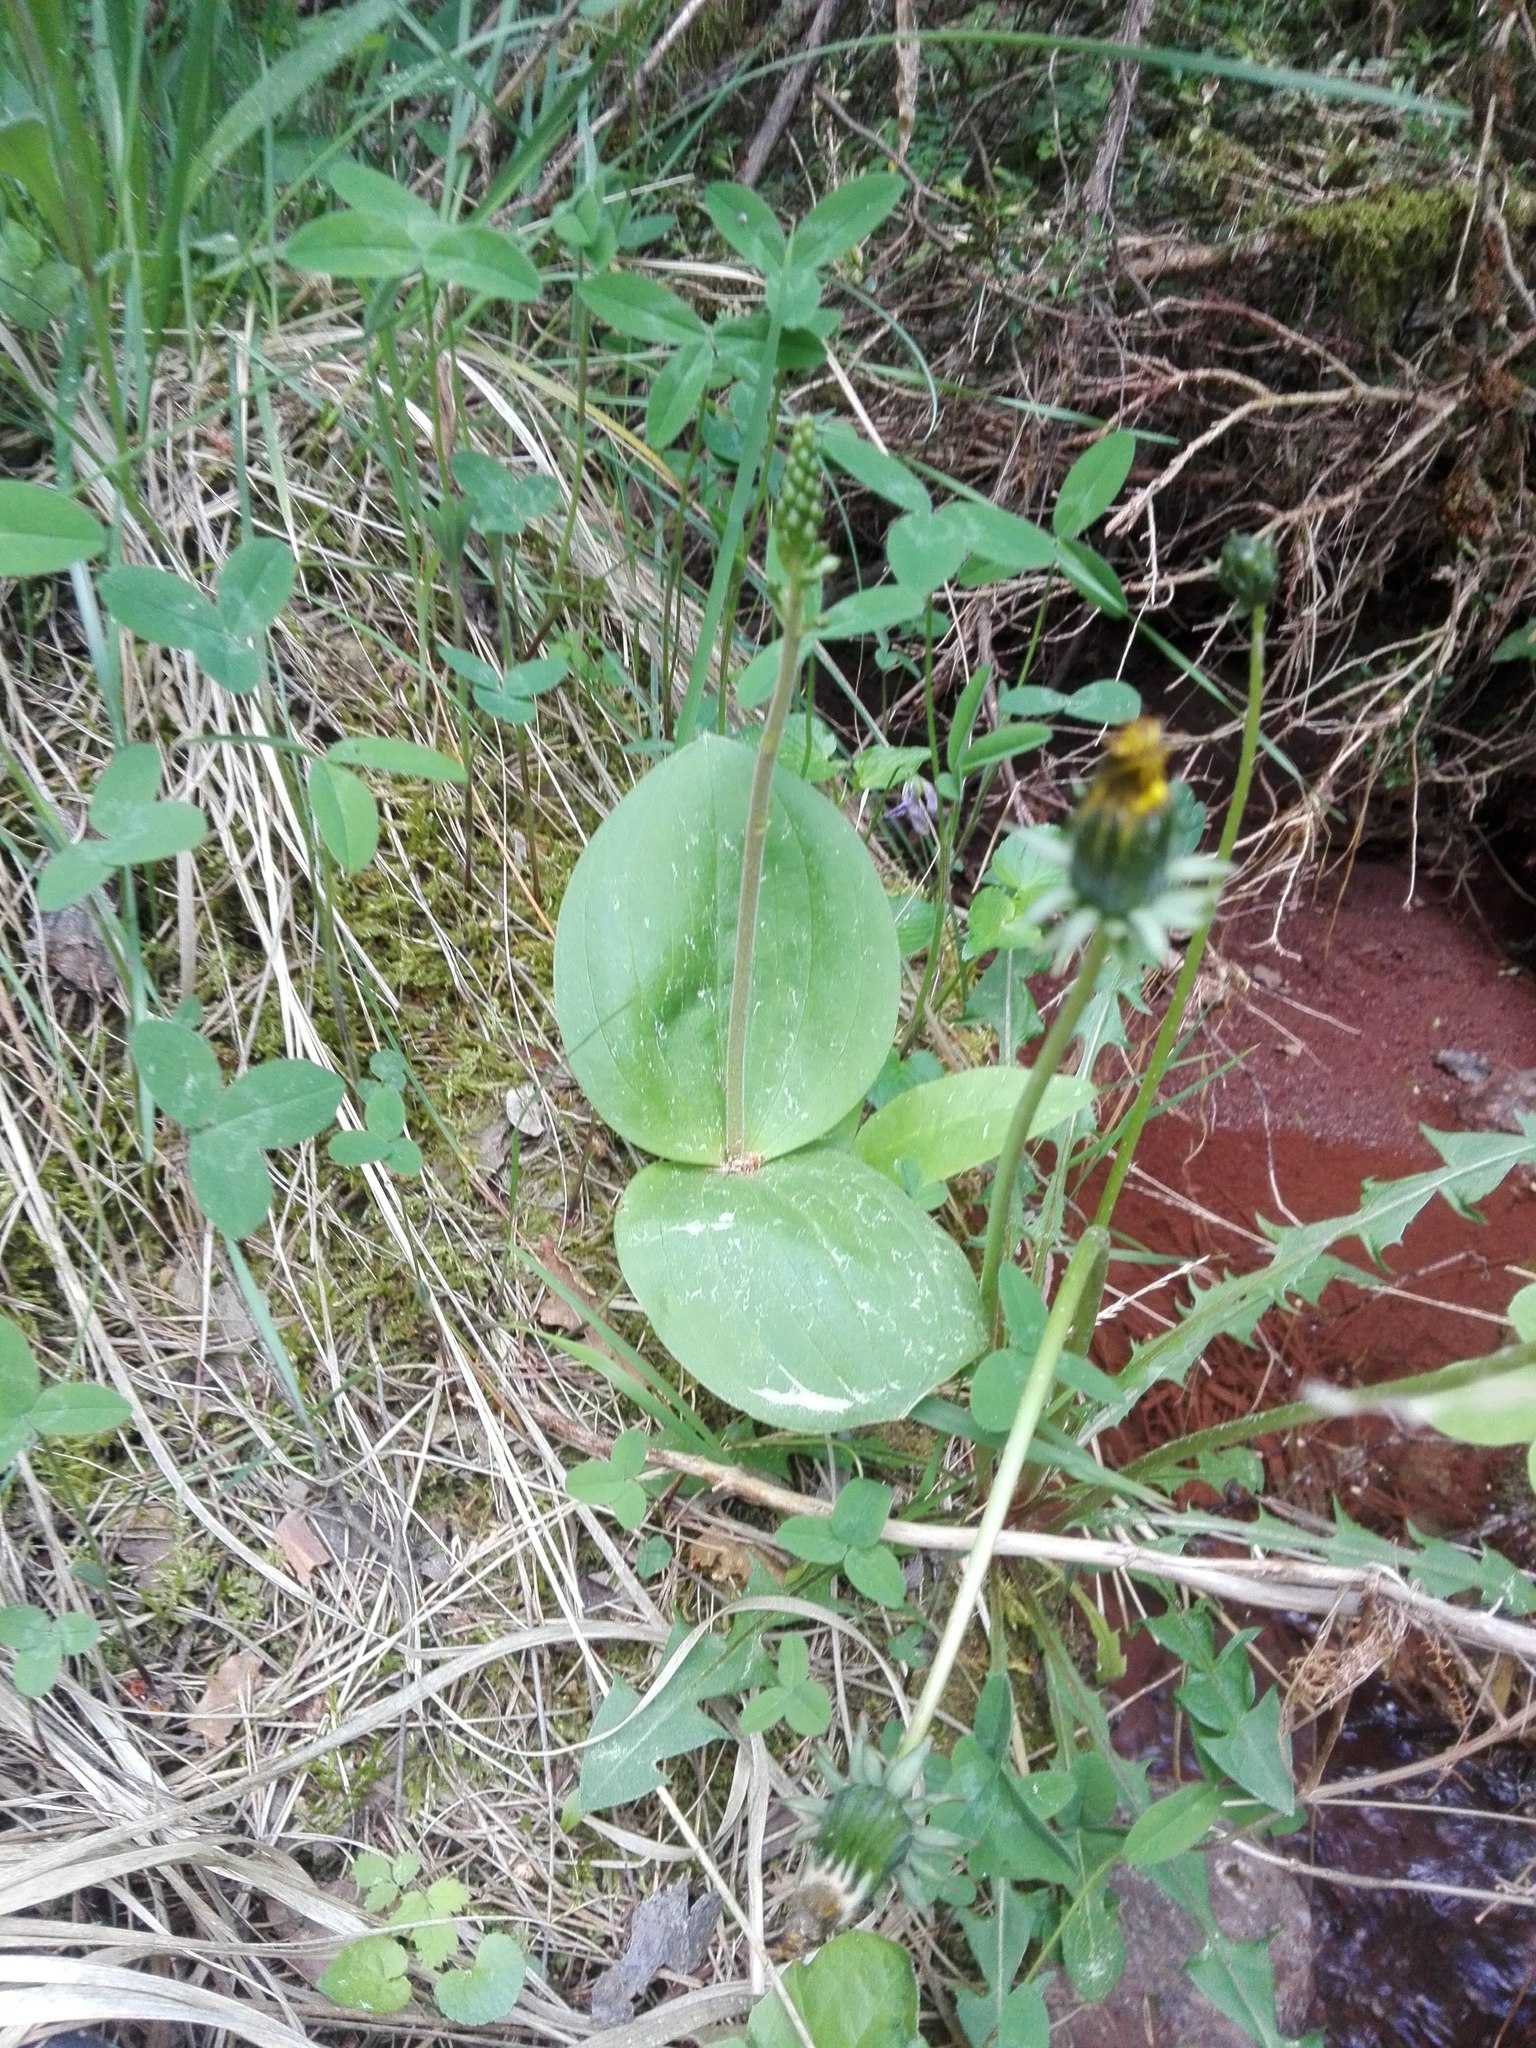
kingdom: Plantae
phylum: Tracheophyta
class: Liliopsida
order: Asparagales
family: Orchidaceae
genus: Neottia
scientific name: Neottia ovata
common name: Common twayblade
